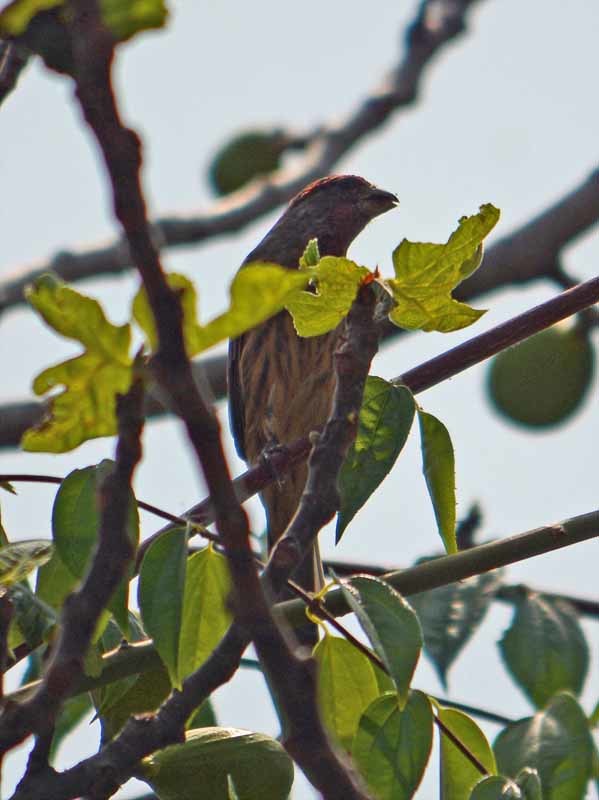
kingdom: Animalia
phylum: Chordata
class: Aves
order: Passeriformes
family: Fringillidae
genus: Haemorhous
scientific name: Haemorhous mexicanus
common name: House finch
